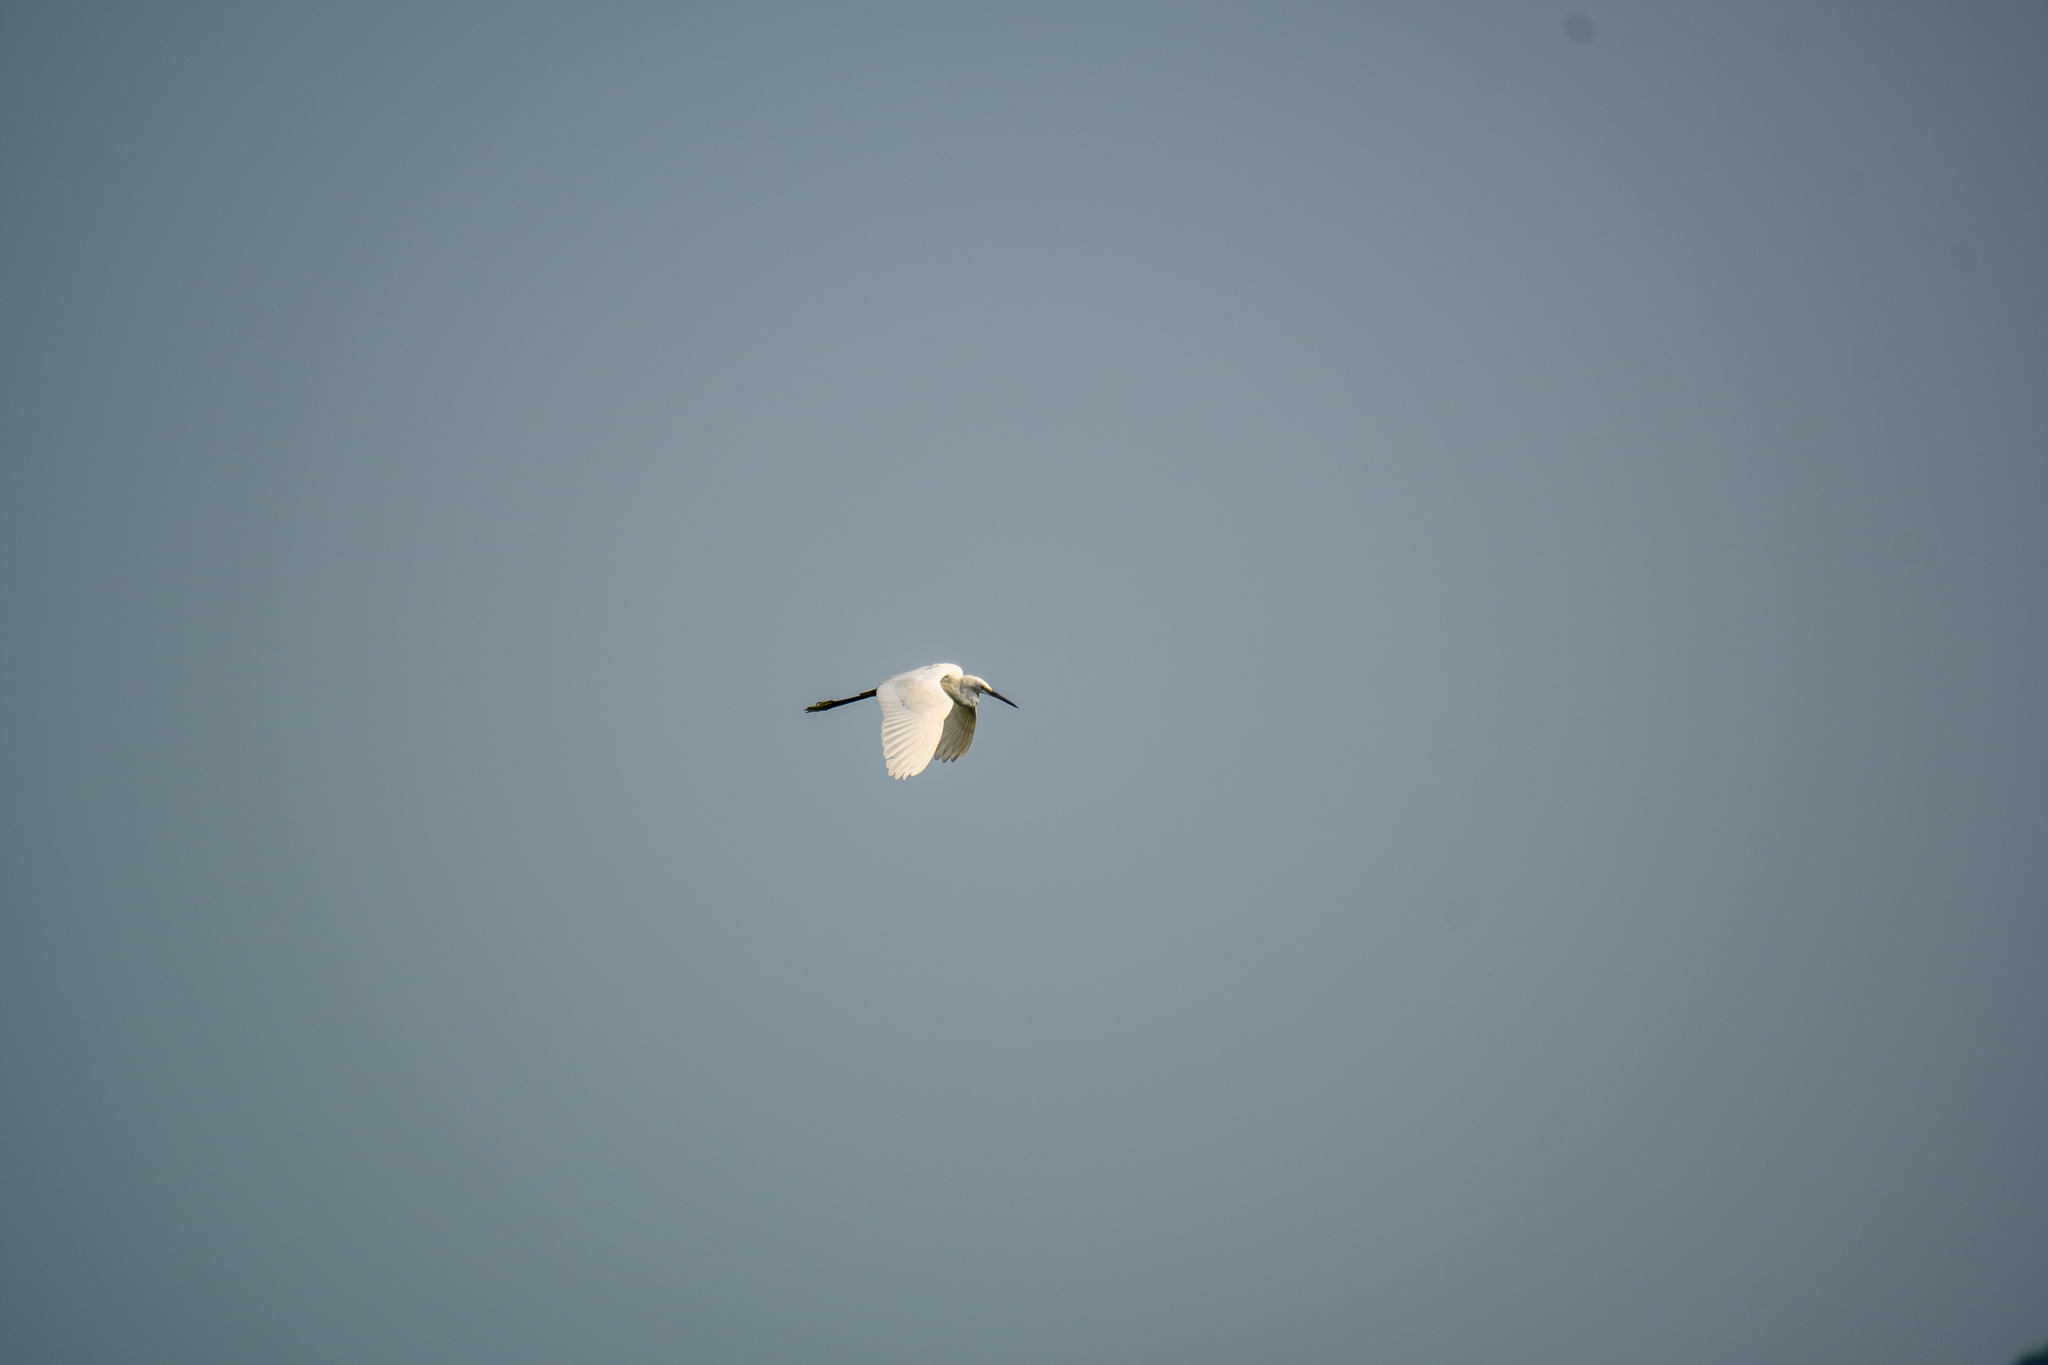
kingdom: Animalia
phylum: Chordata
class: Aves
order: Pelecaniformes
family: Ardeidae
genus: Egretta
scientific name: Egretta garzetta
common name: Little egret
